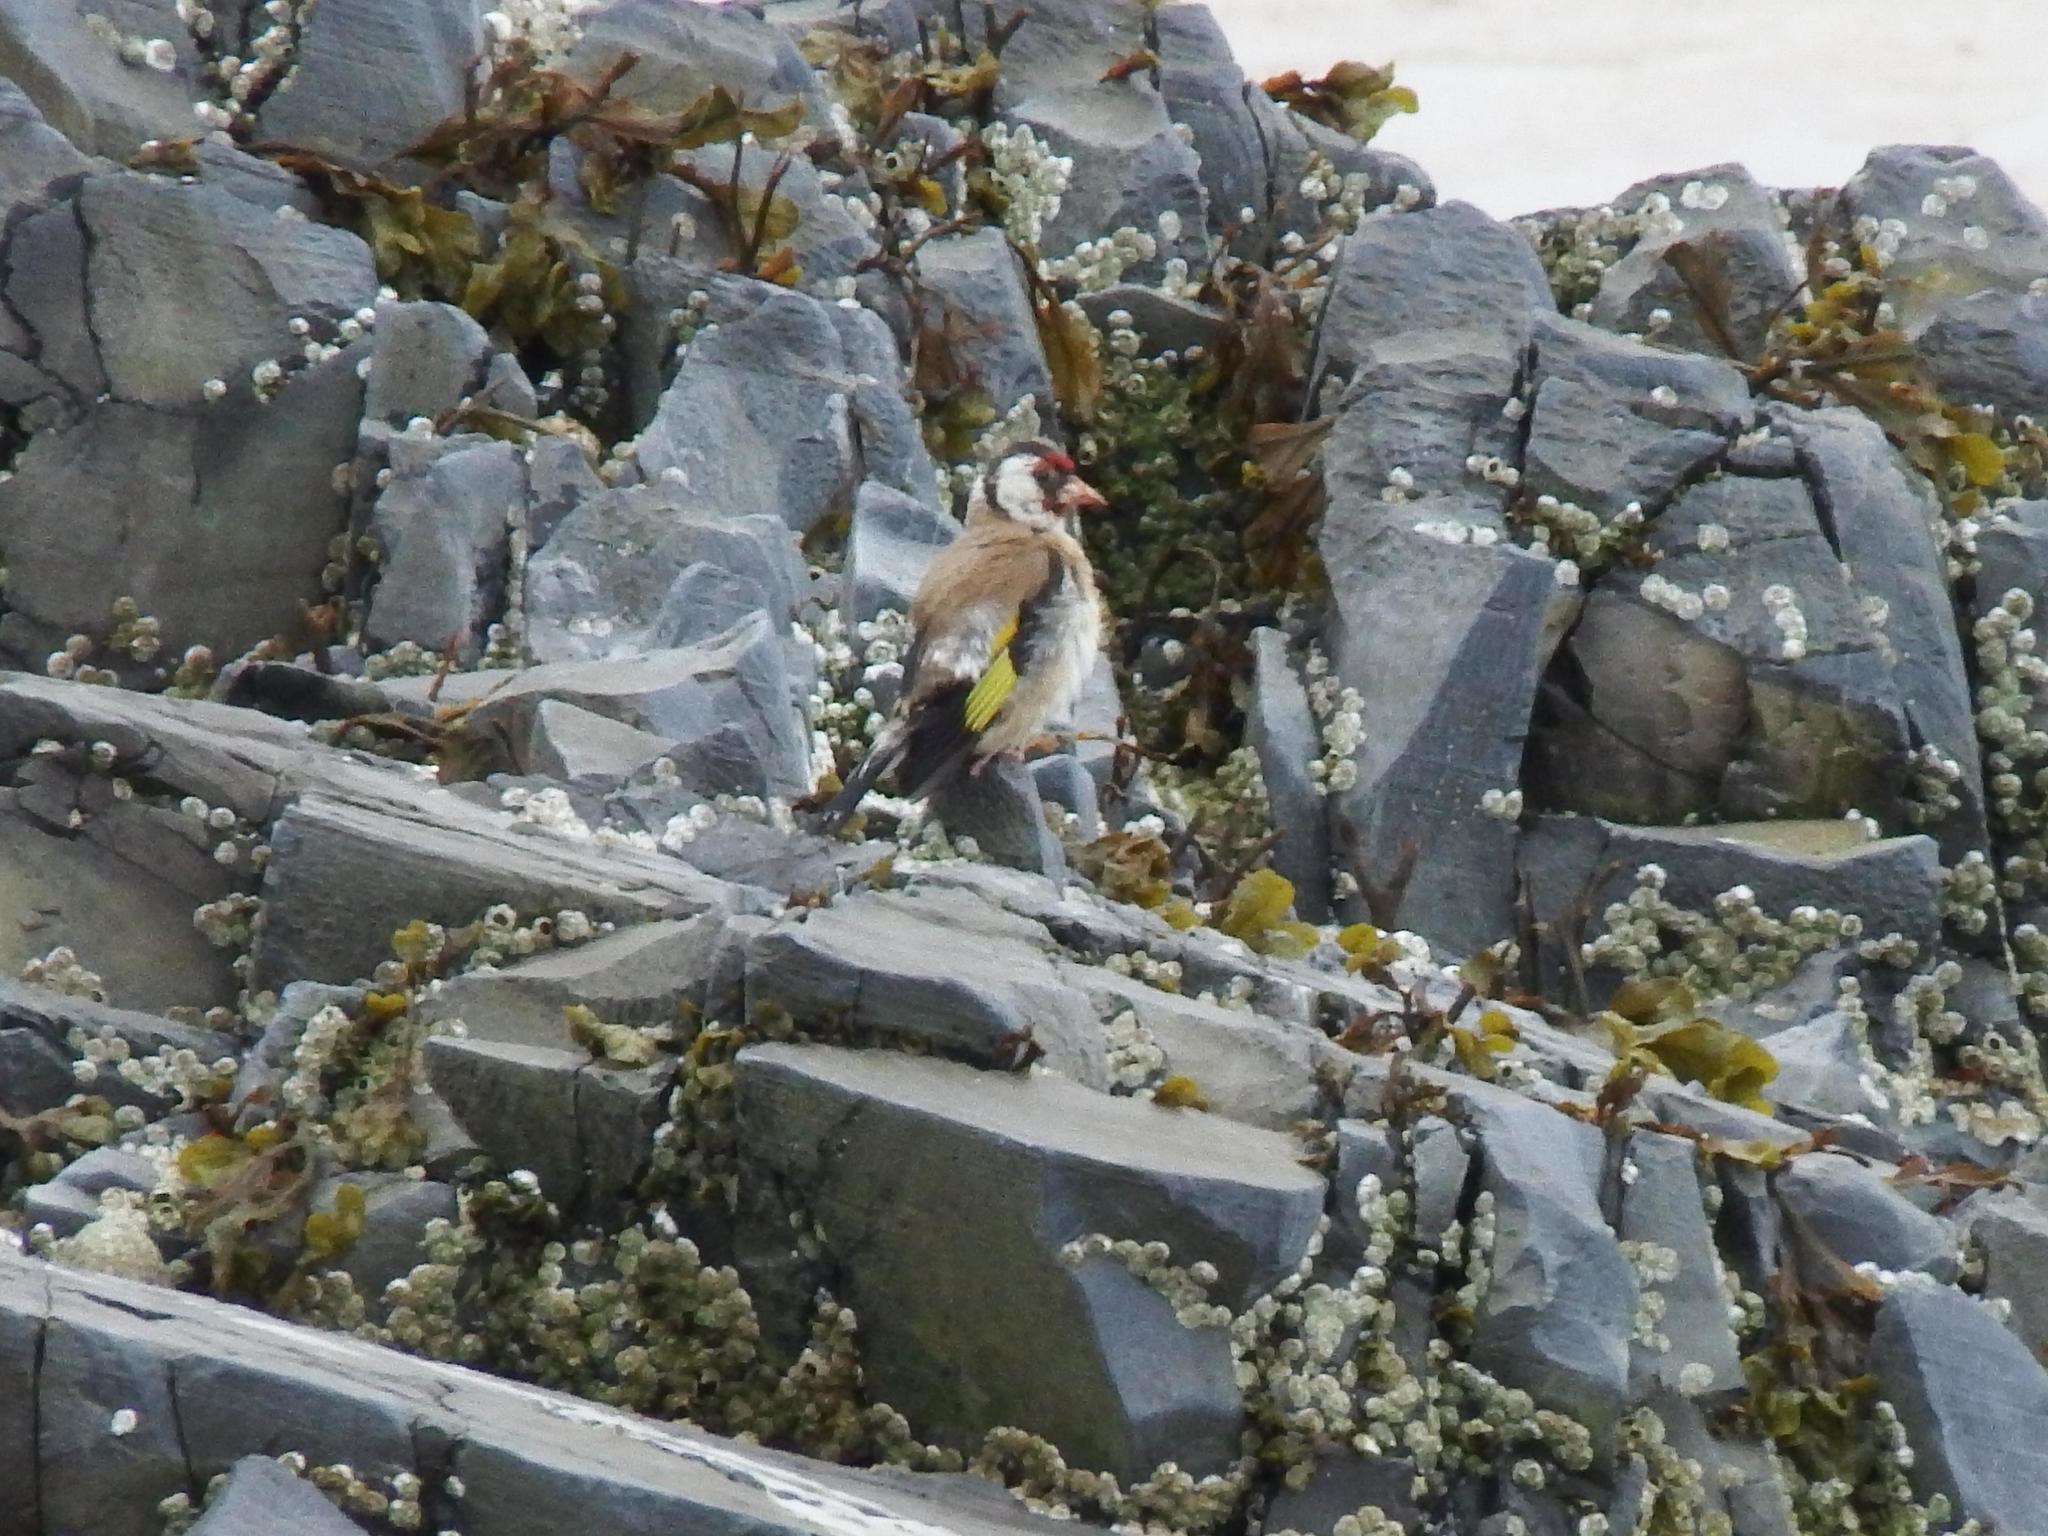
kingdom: Animalia
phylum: Chordata
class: Aves
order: Passeriformes
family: Fringillidae
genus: Carduelis
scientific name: Carduelis carduelis
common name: European goldfinch
